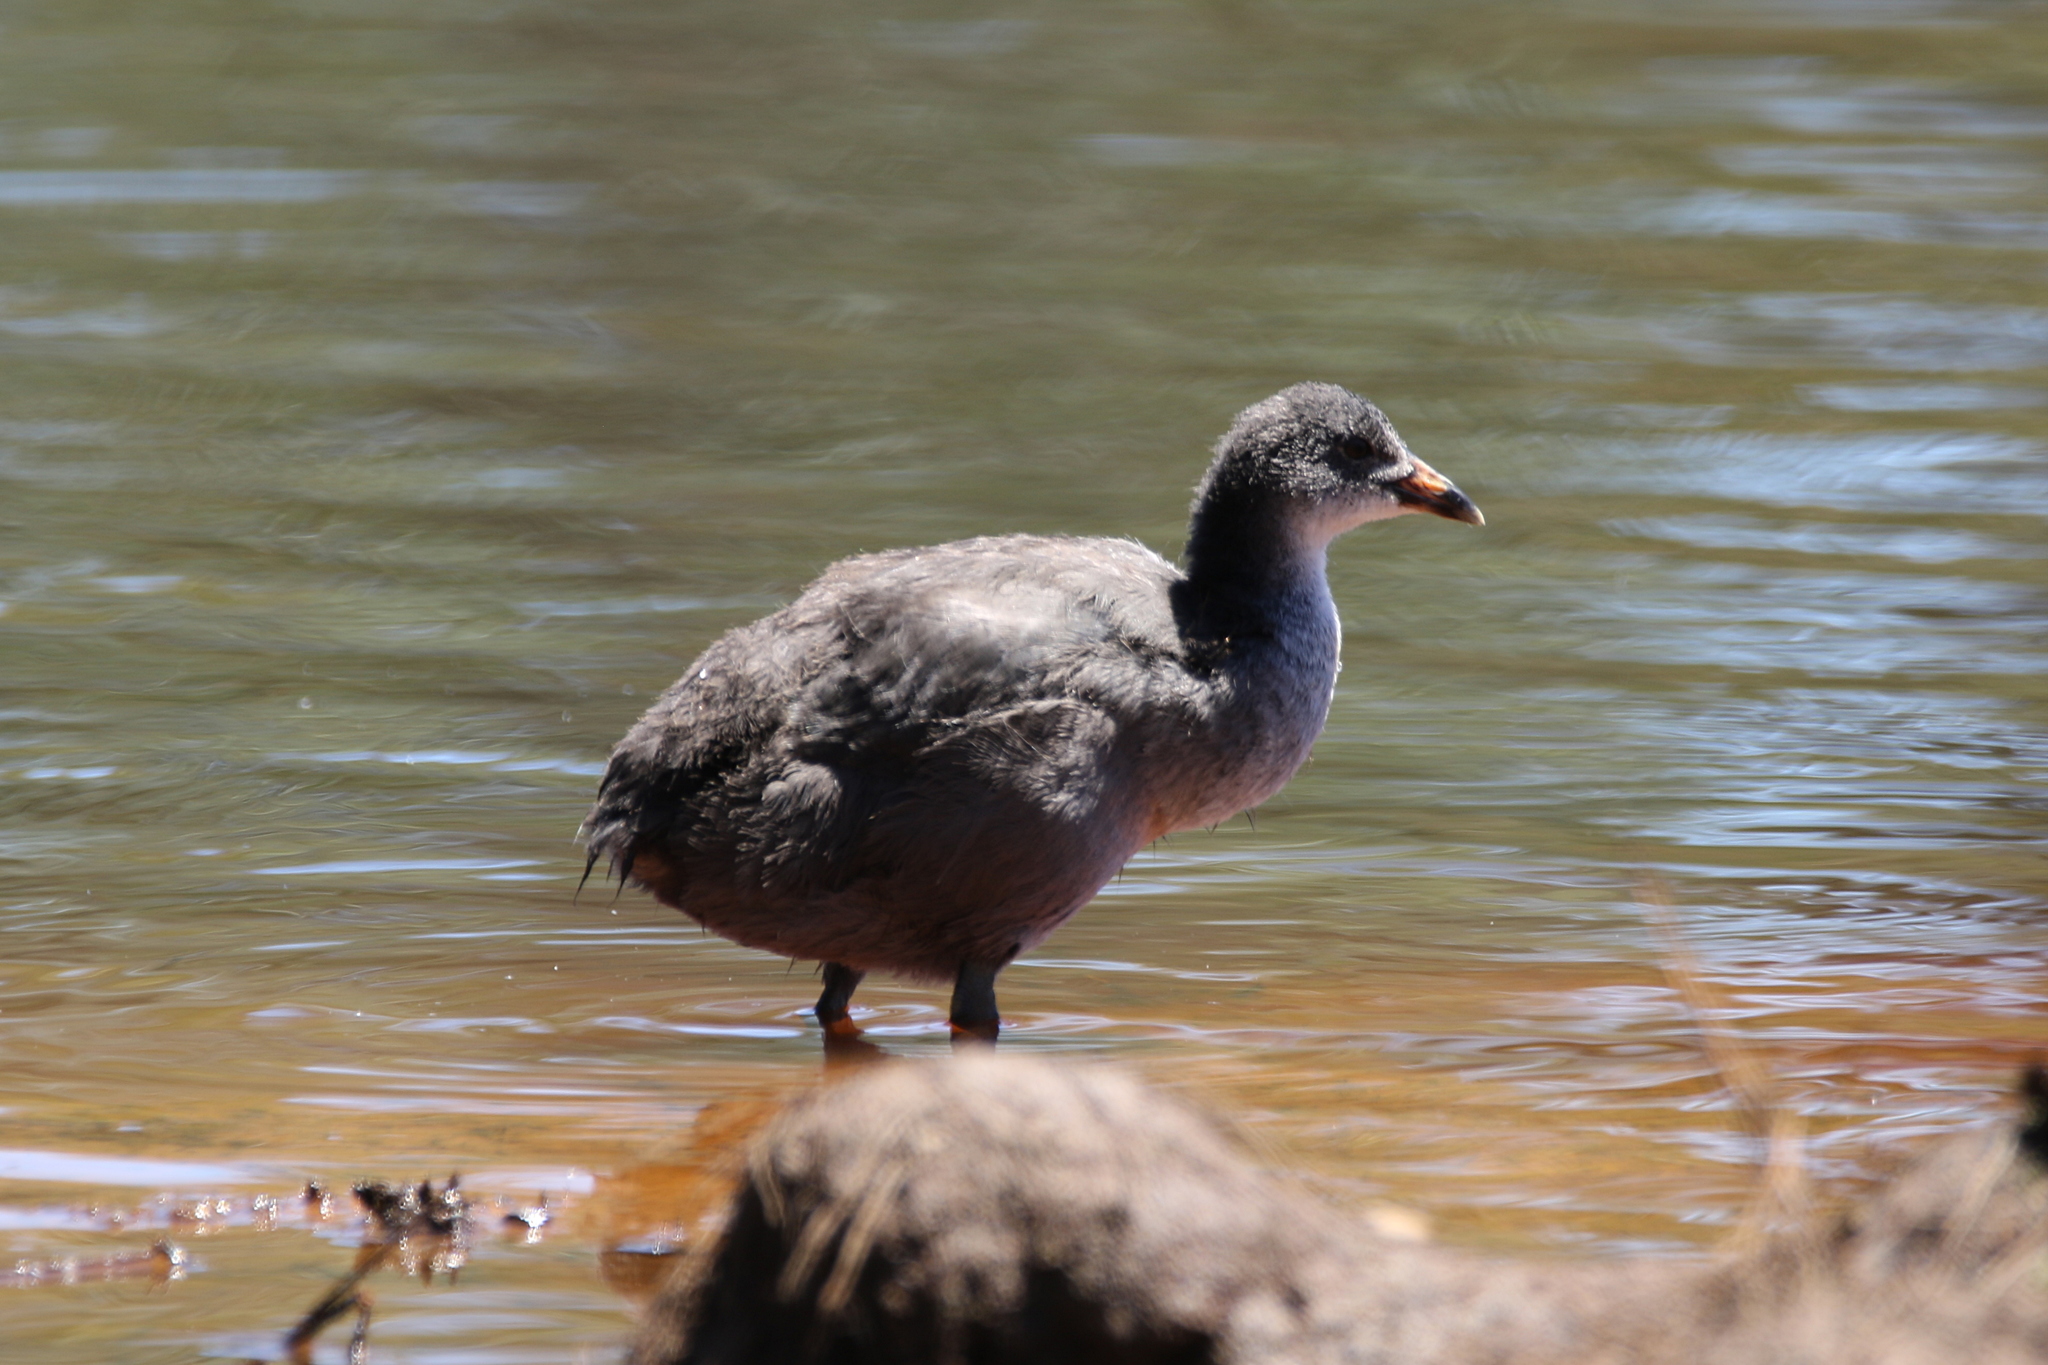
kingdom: Animalia
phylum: Chordata
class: Aves
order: Gruiformes
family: Rallidae
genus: Fulica
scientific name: Fulica atra
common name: Eurasian coot
